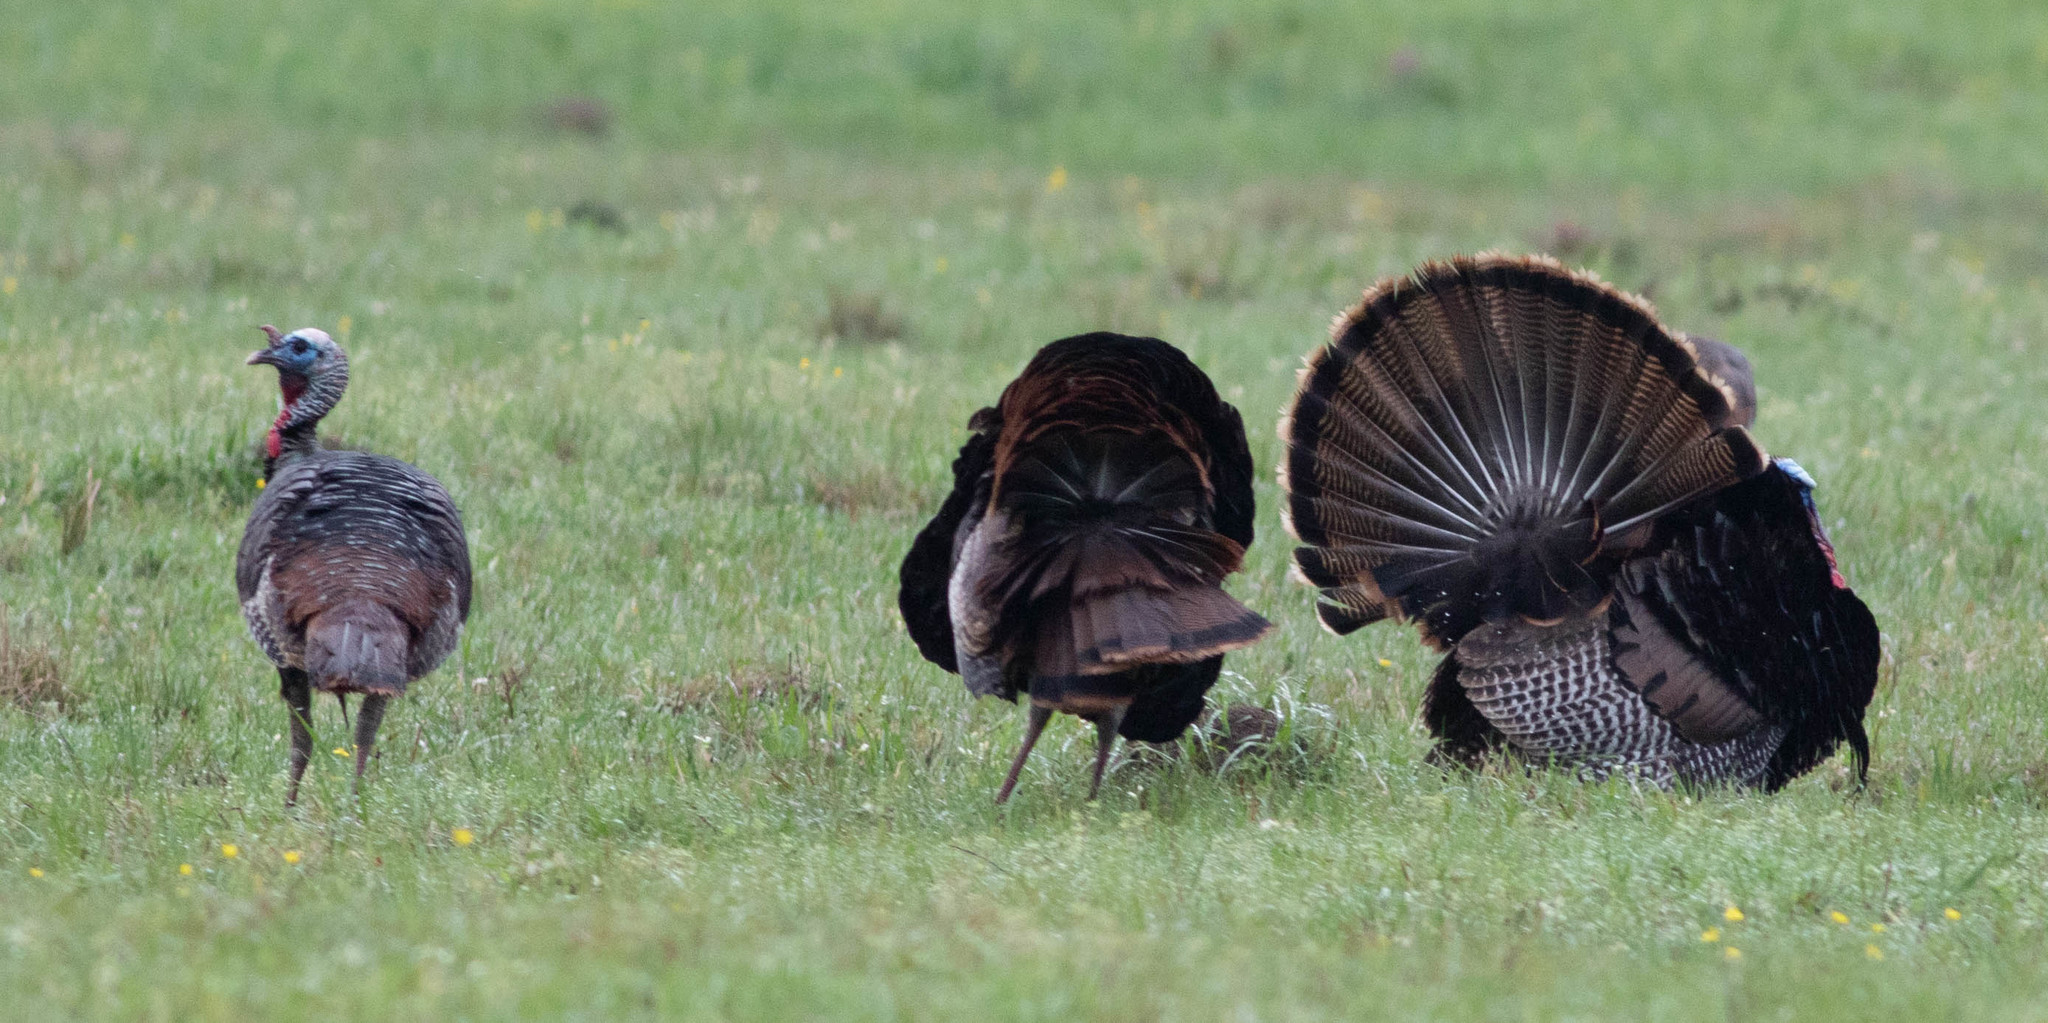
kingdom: Animalia
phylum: Chordata
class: Aves
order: Galliformes
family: Phasianidae
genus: Meleagris
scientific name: Meleagris gallopavo
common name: Wild turkey
